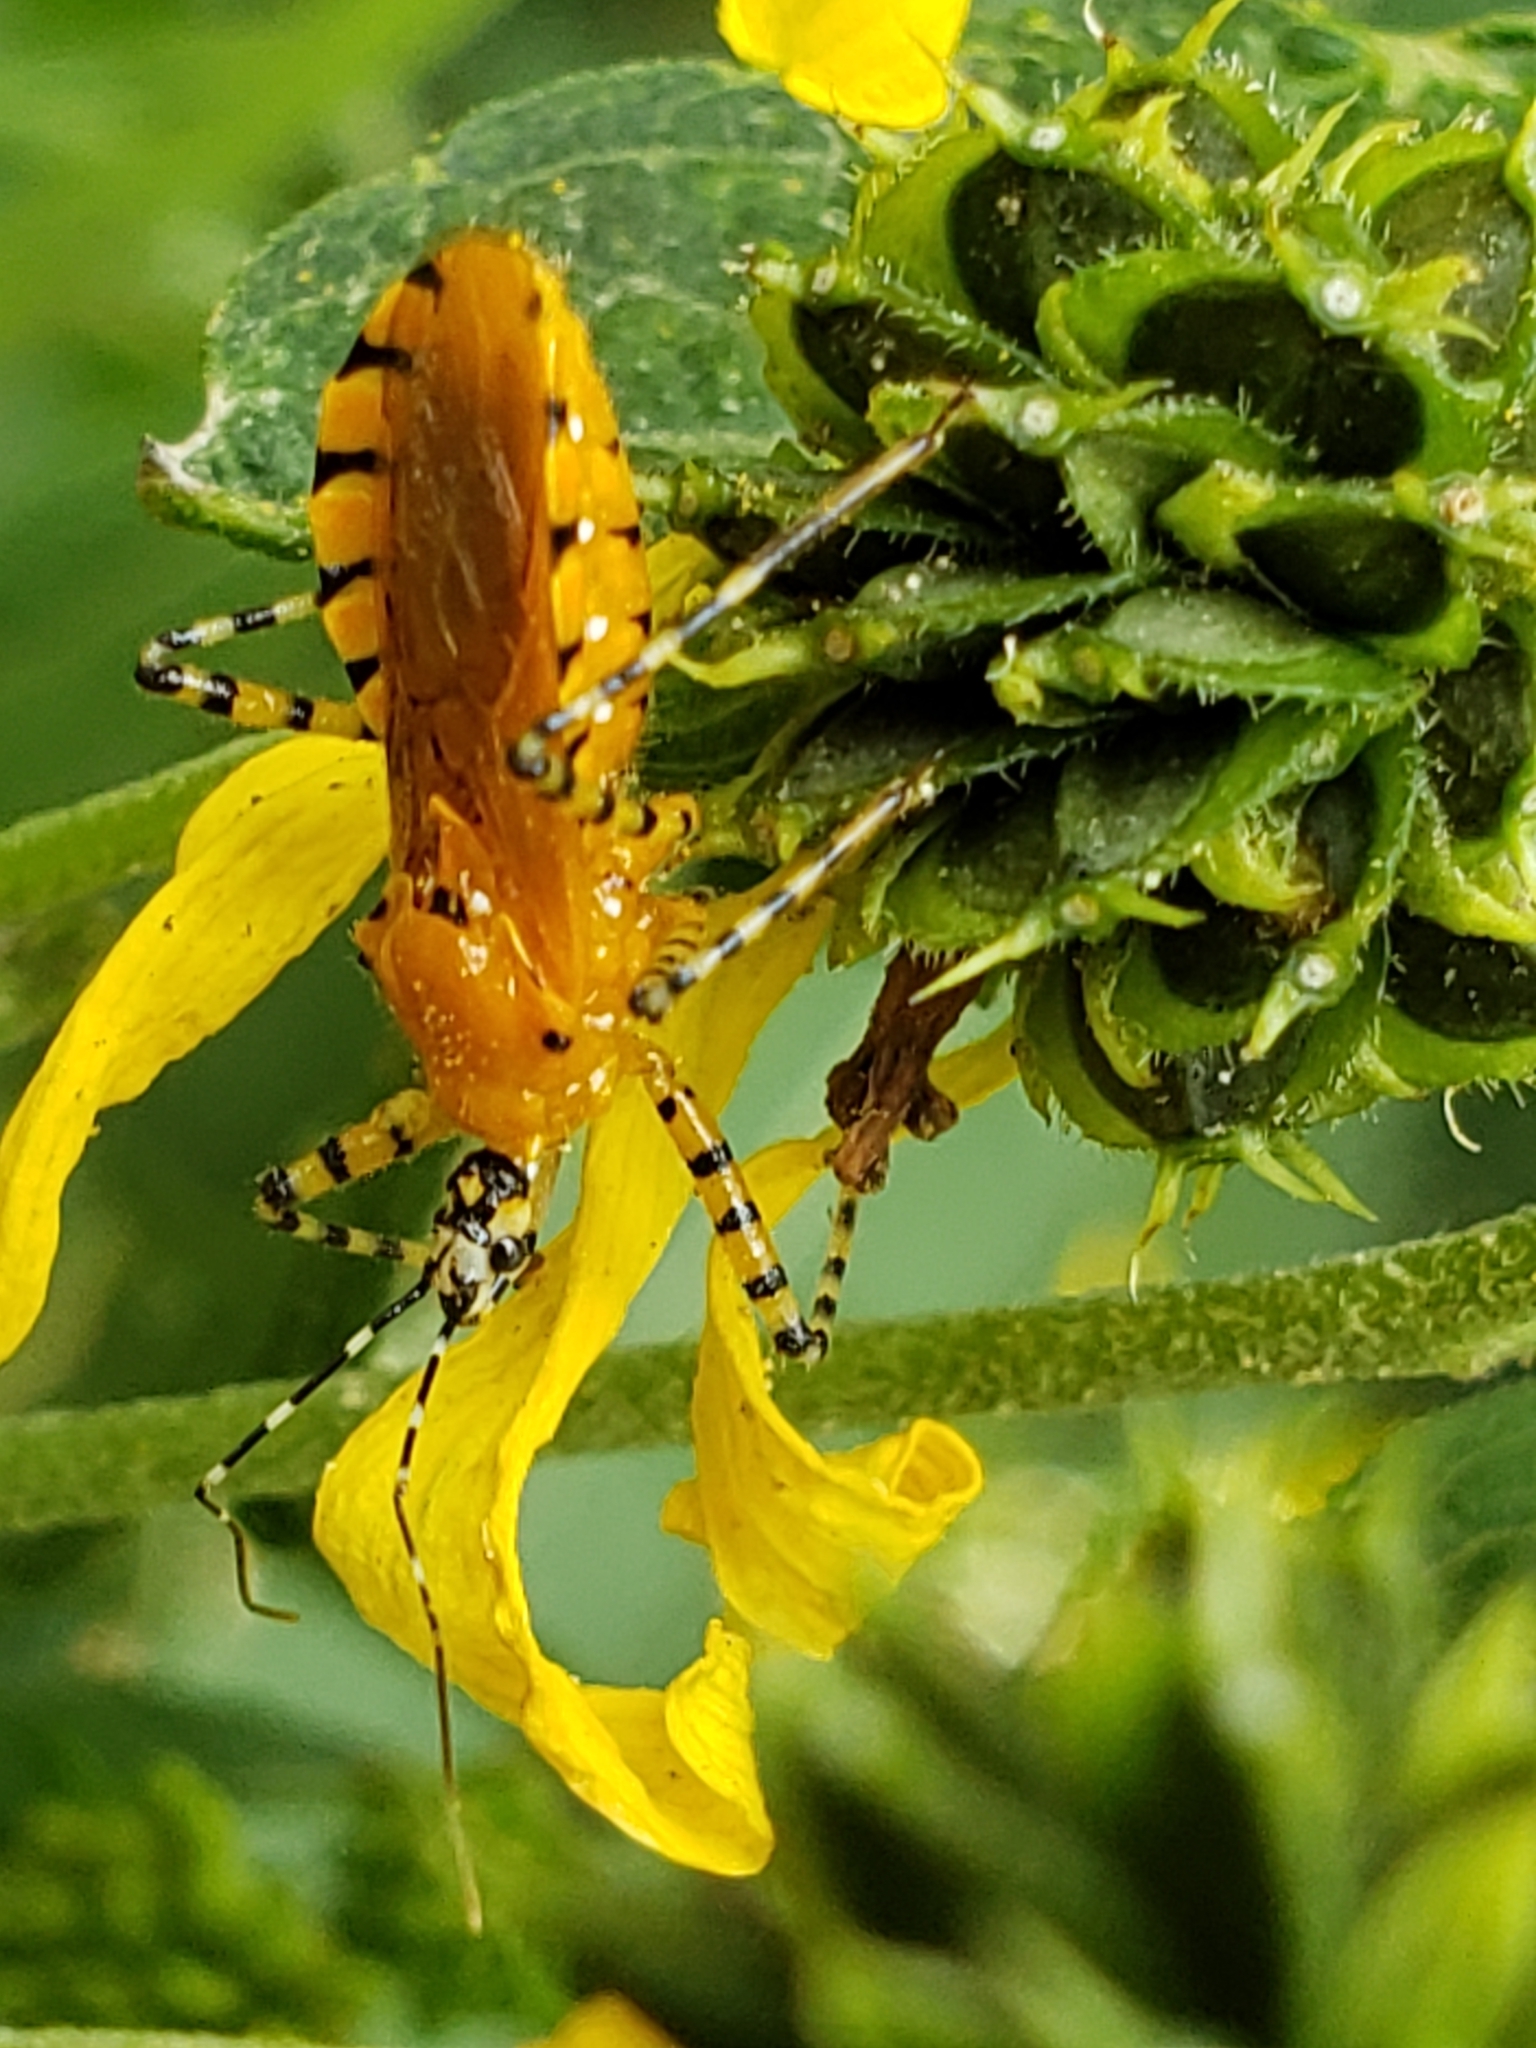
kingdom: Animalia
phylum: Arthropoda
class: Insecta
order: Hemiptera
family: Reduviidae
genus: Pselliopus
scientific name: Pselliopus barberi
